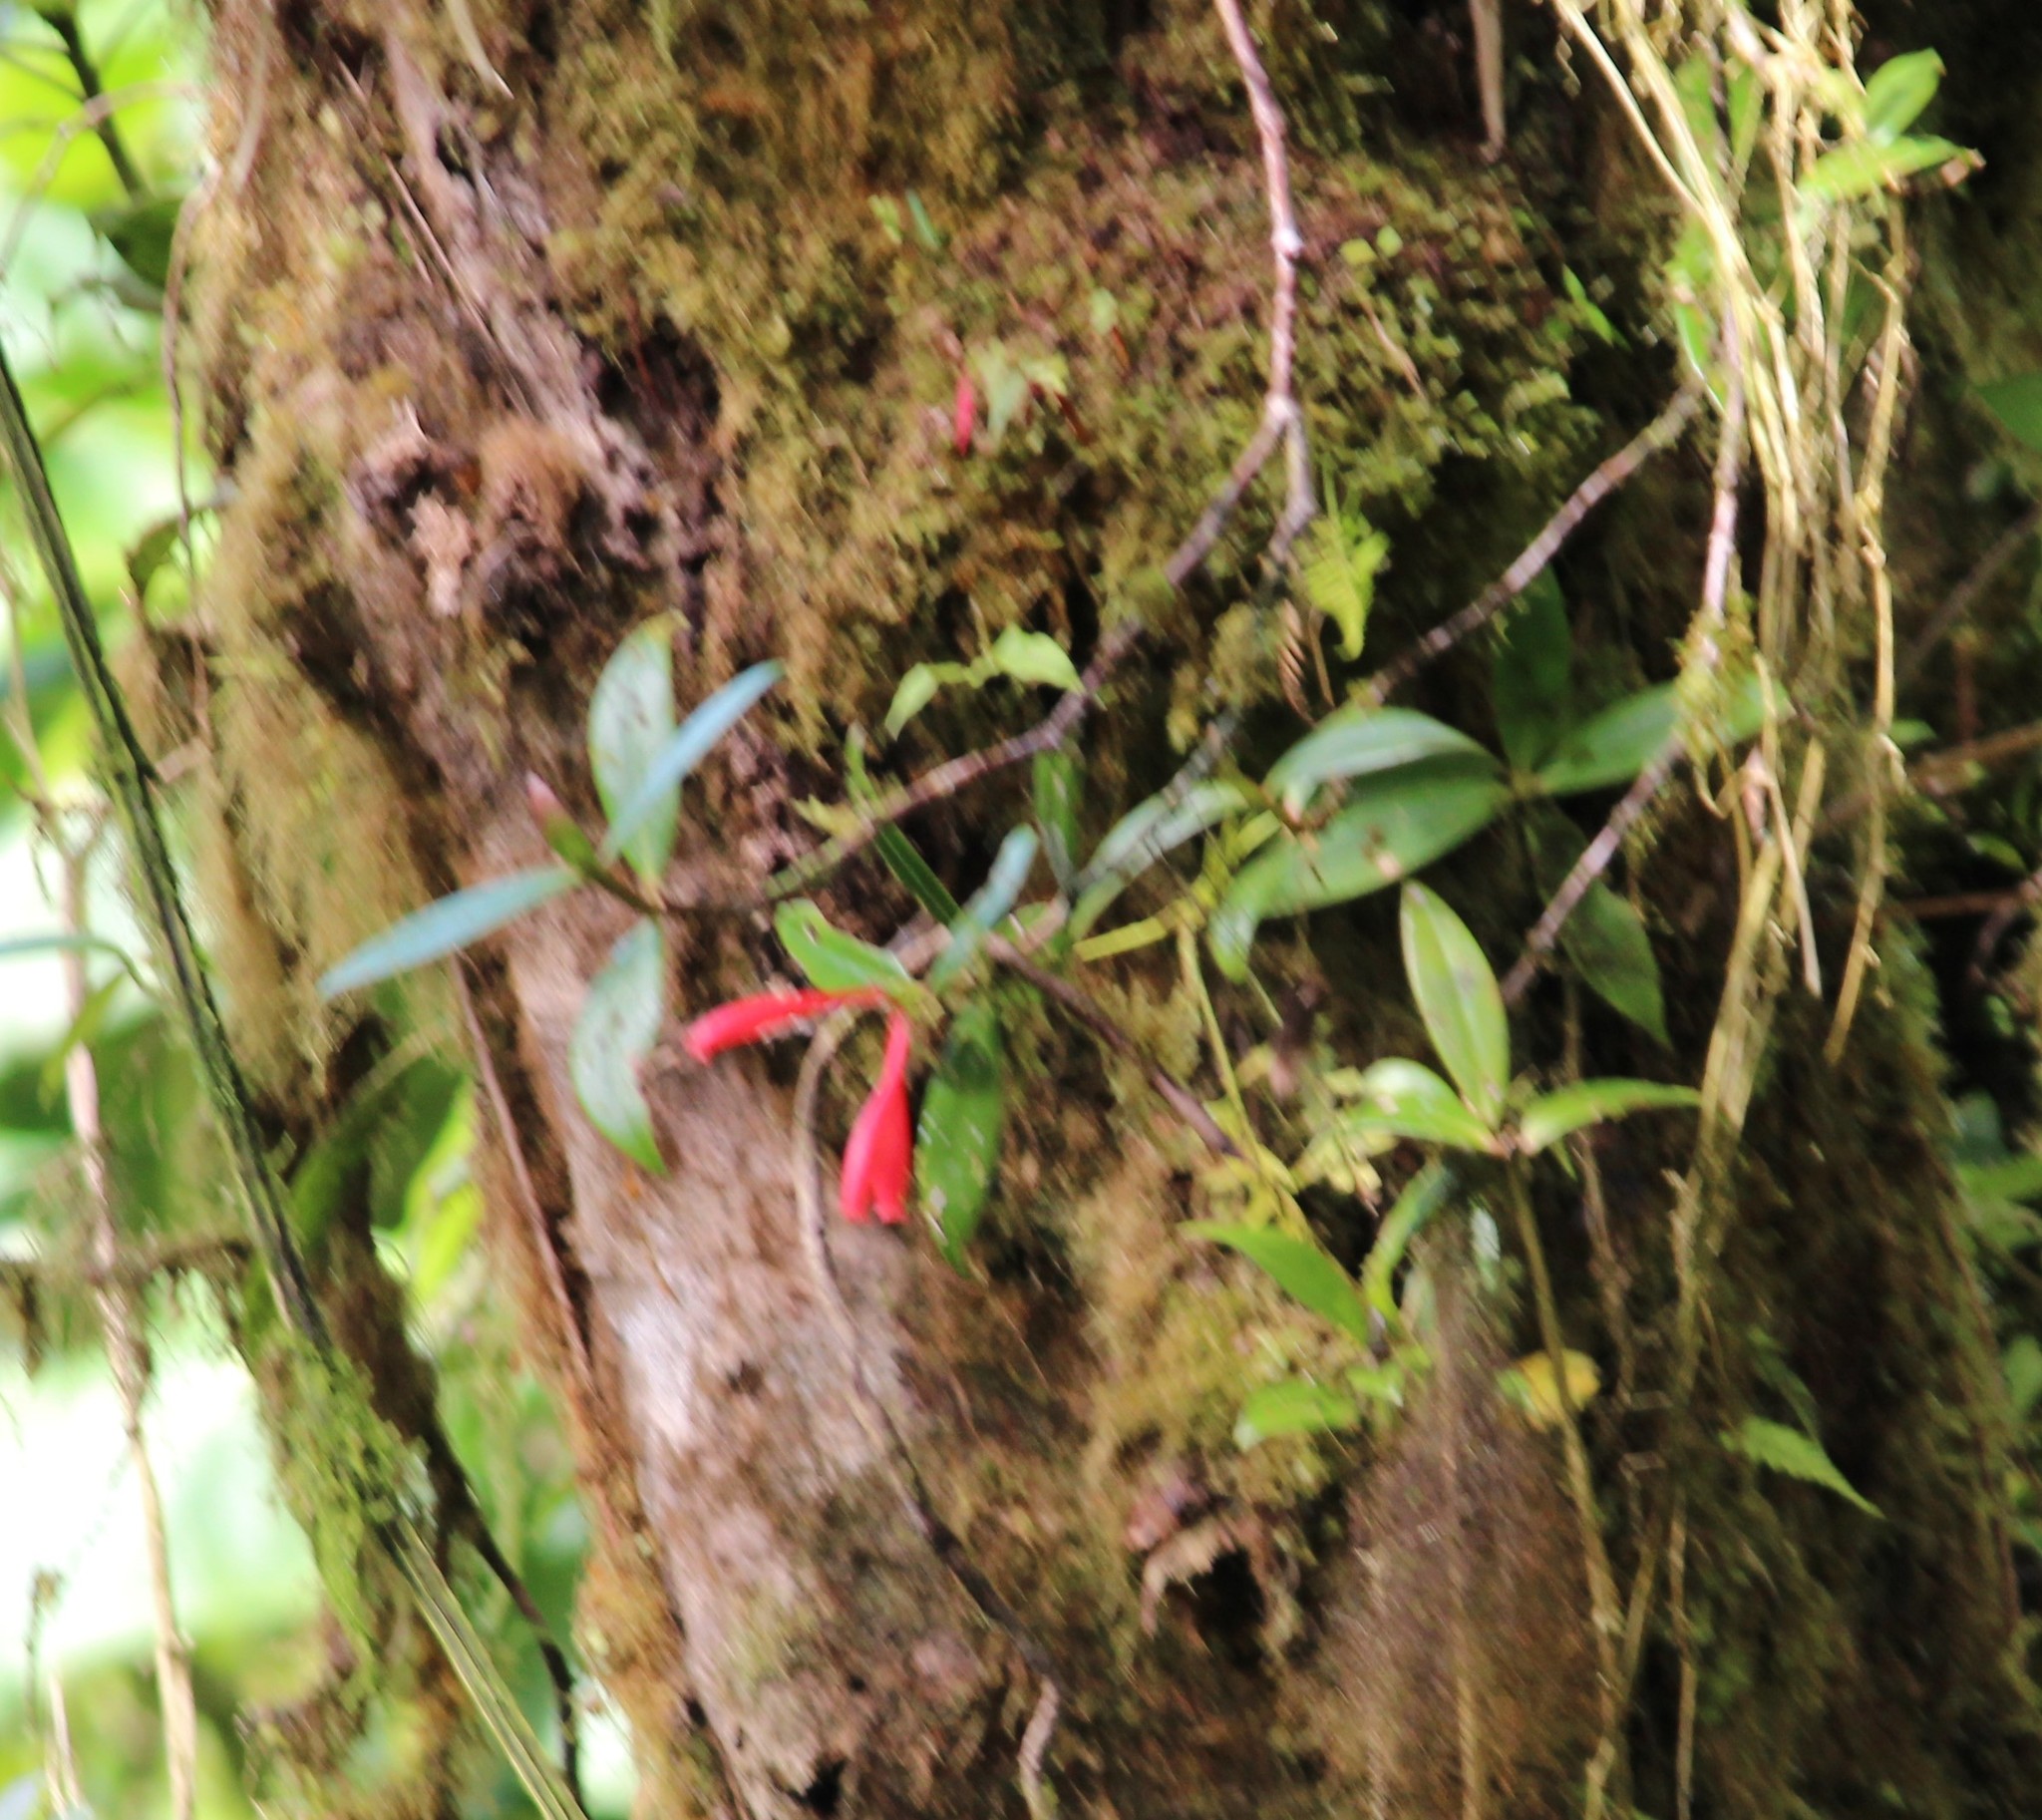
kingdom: Plantae
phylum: Tracheophyta
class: Magnoliopsida
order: Gentianales
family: Rubiaceae
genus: Hillia
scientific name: Hillia triflora
